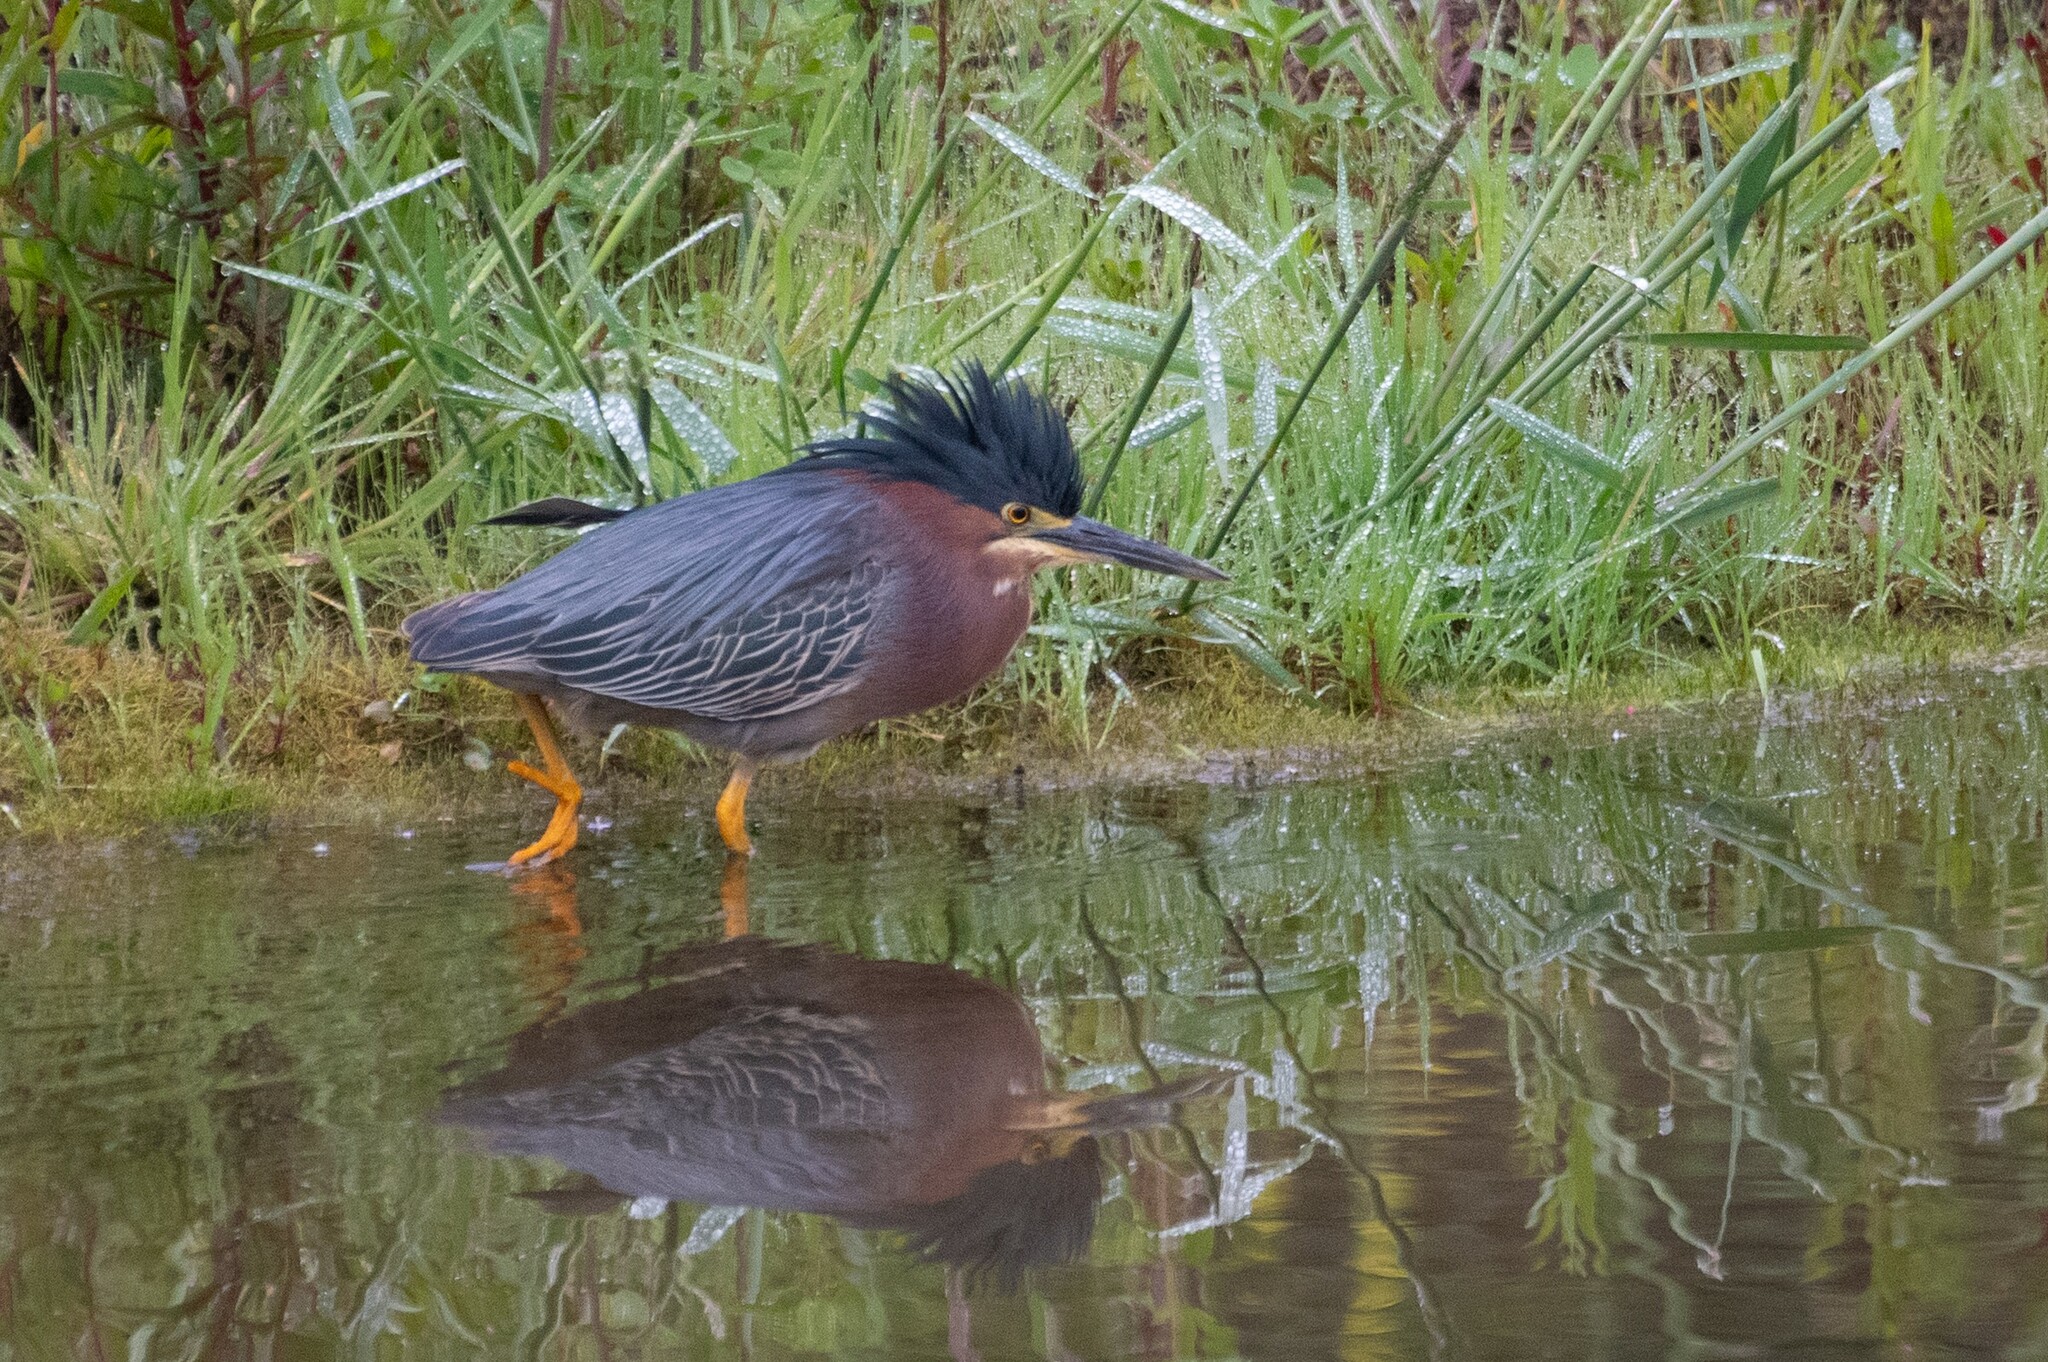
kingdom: Animalia
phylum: Chordata
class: Aves
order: Pelecaniformes
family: Ardeidae
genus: Butorides
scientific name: Butorides virescens
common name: Green heron
